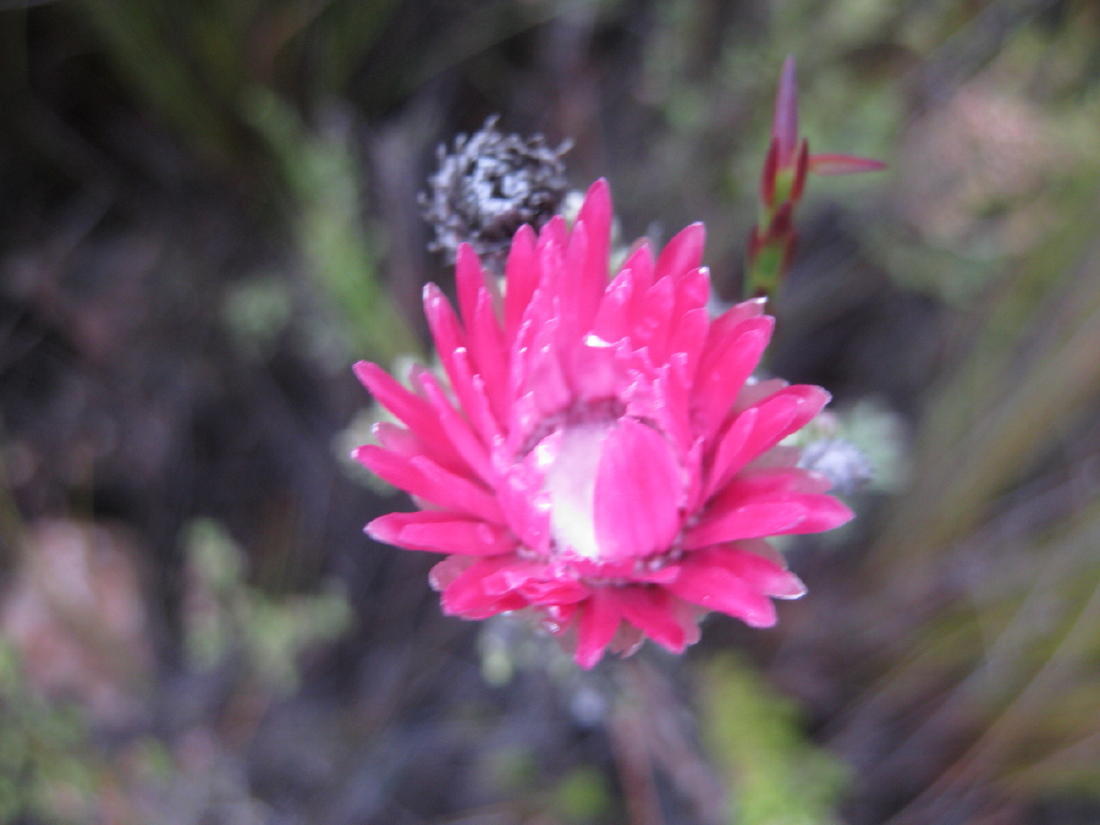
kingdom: Plantae
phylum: Tracheophyta
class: Magnoliopsida
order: Asterales
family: Asteraceae
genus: Phaenocoma
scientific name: Phaenocoma prolifera
